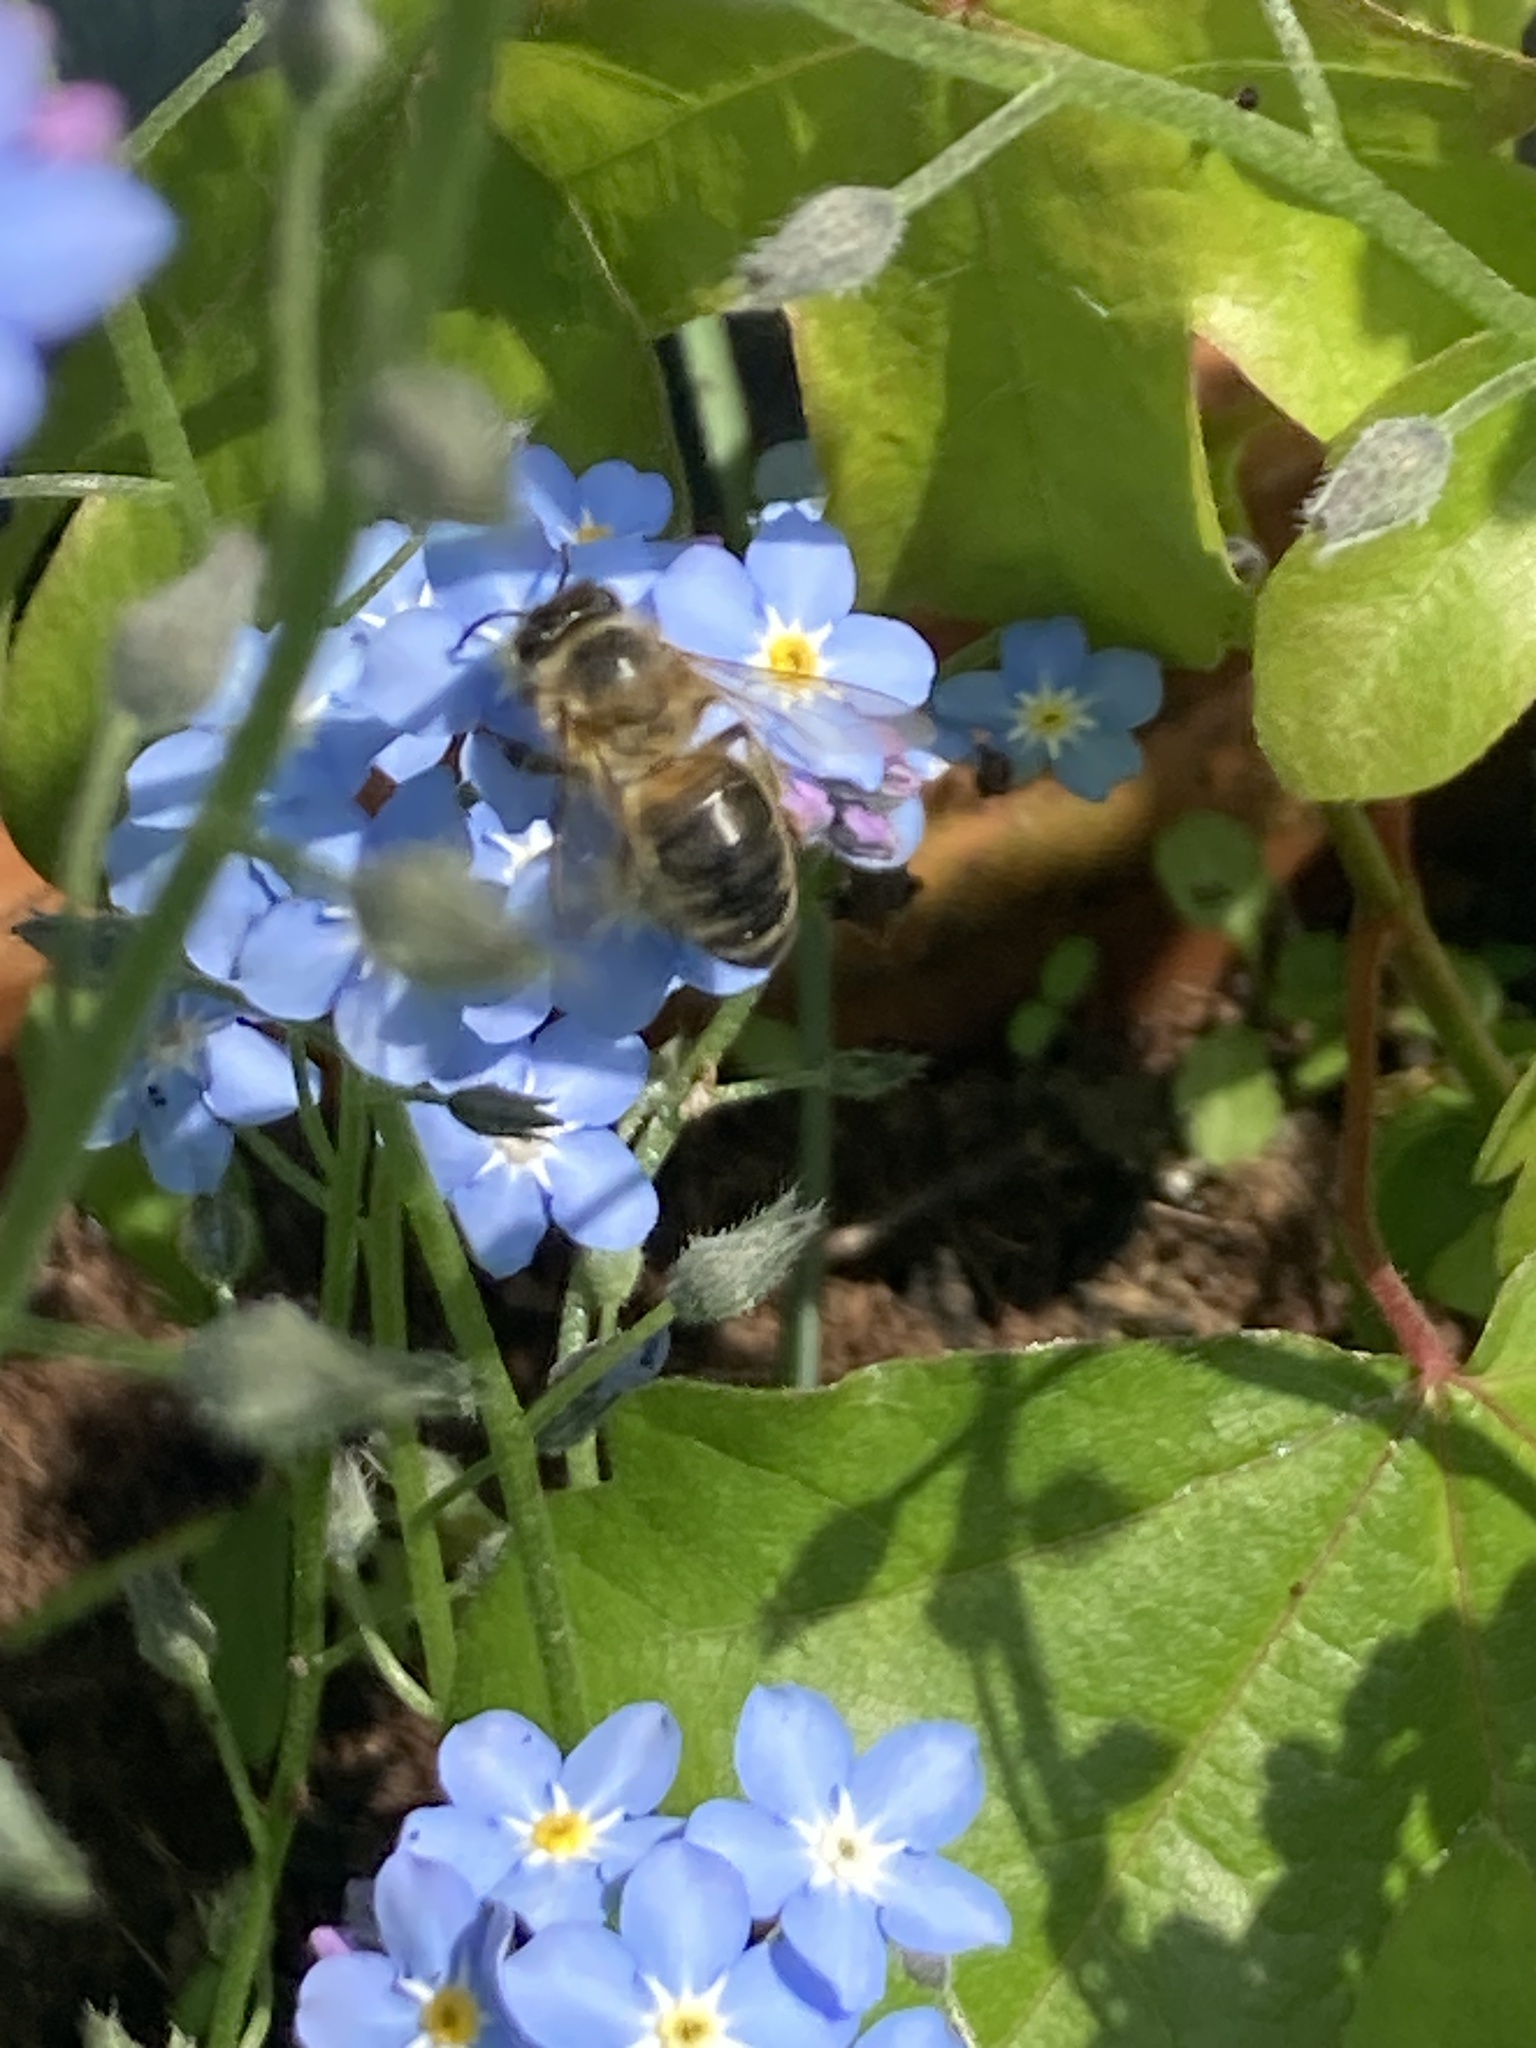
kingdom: Animalia
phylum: Arthropoda
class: Insecta
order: Hymenoptera
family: Apidae
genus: Apis
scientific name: Apis mellifera
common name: Honey bee
